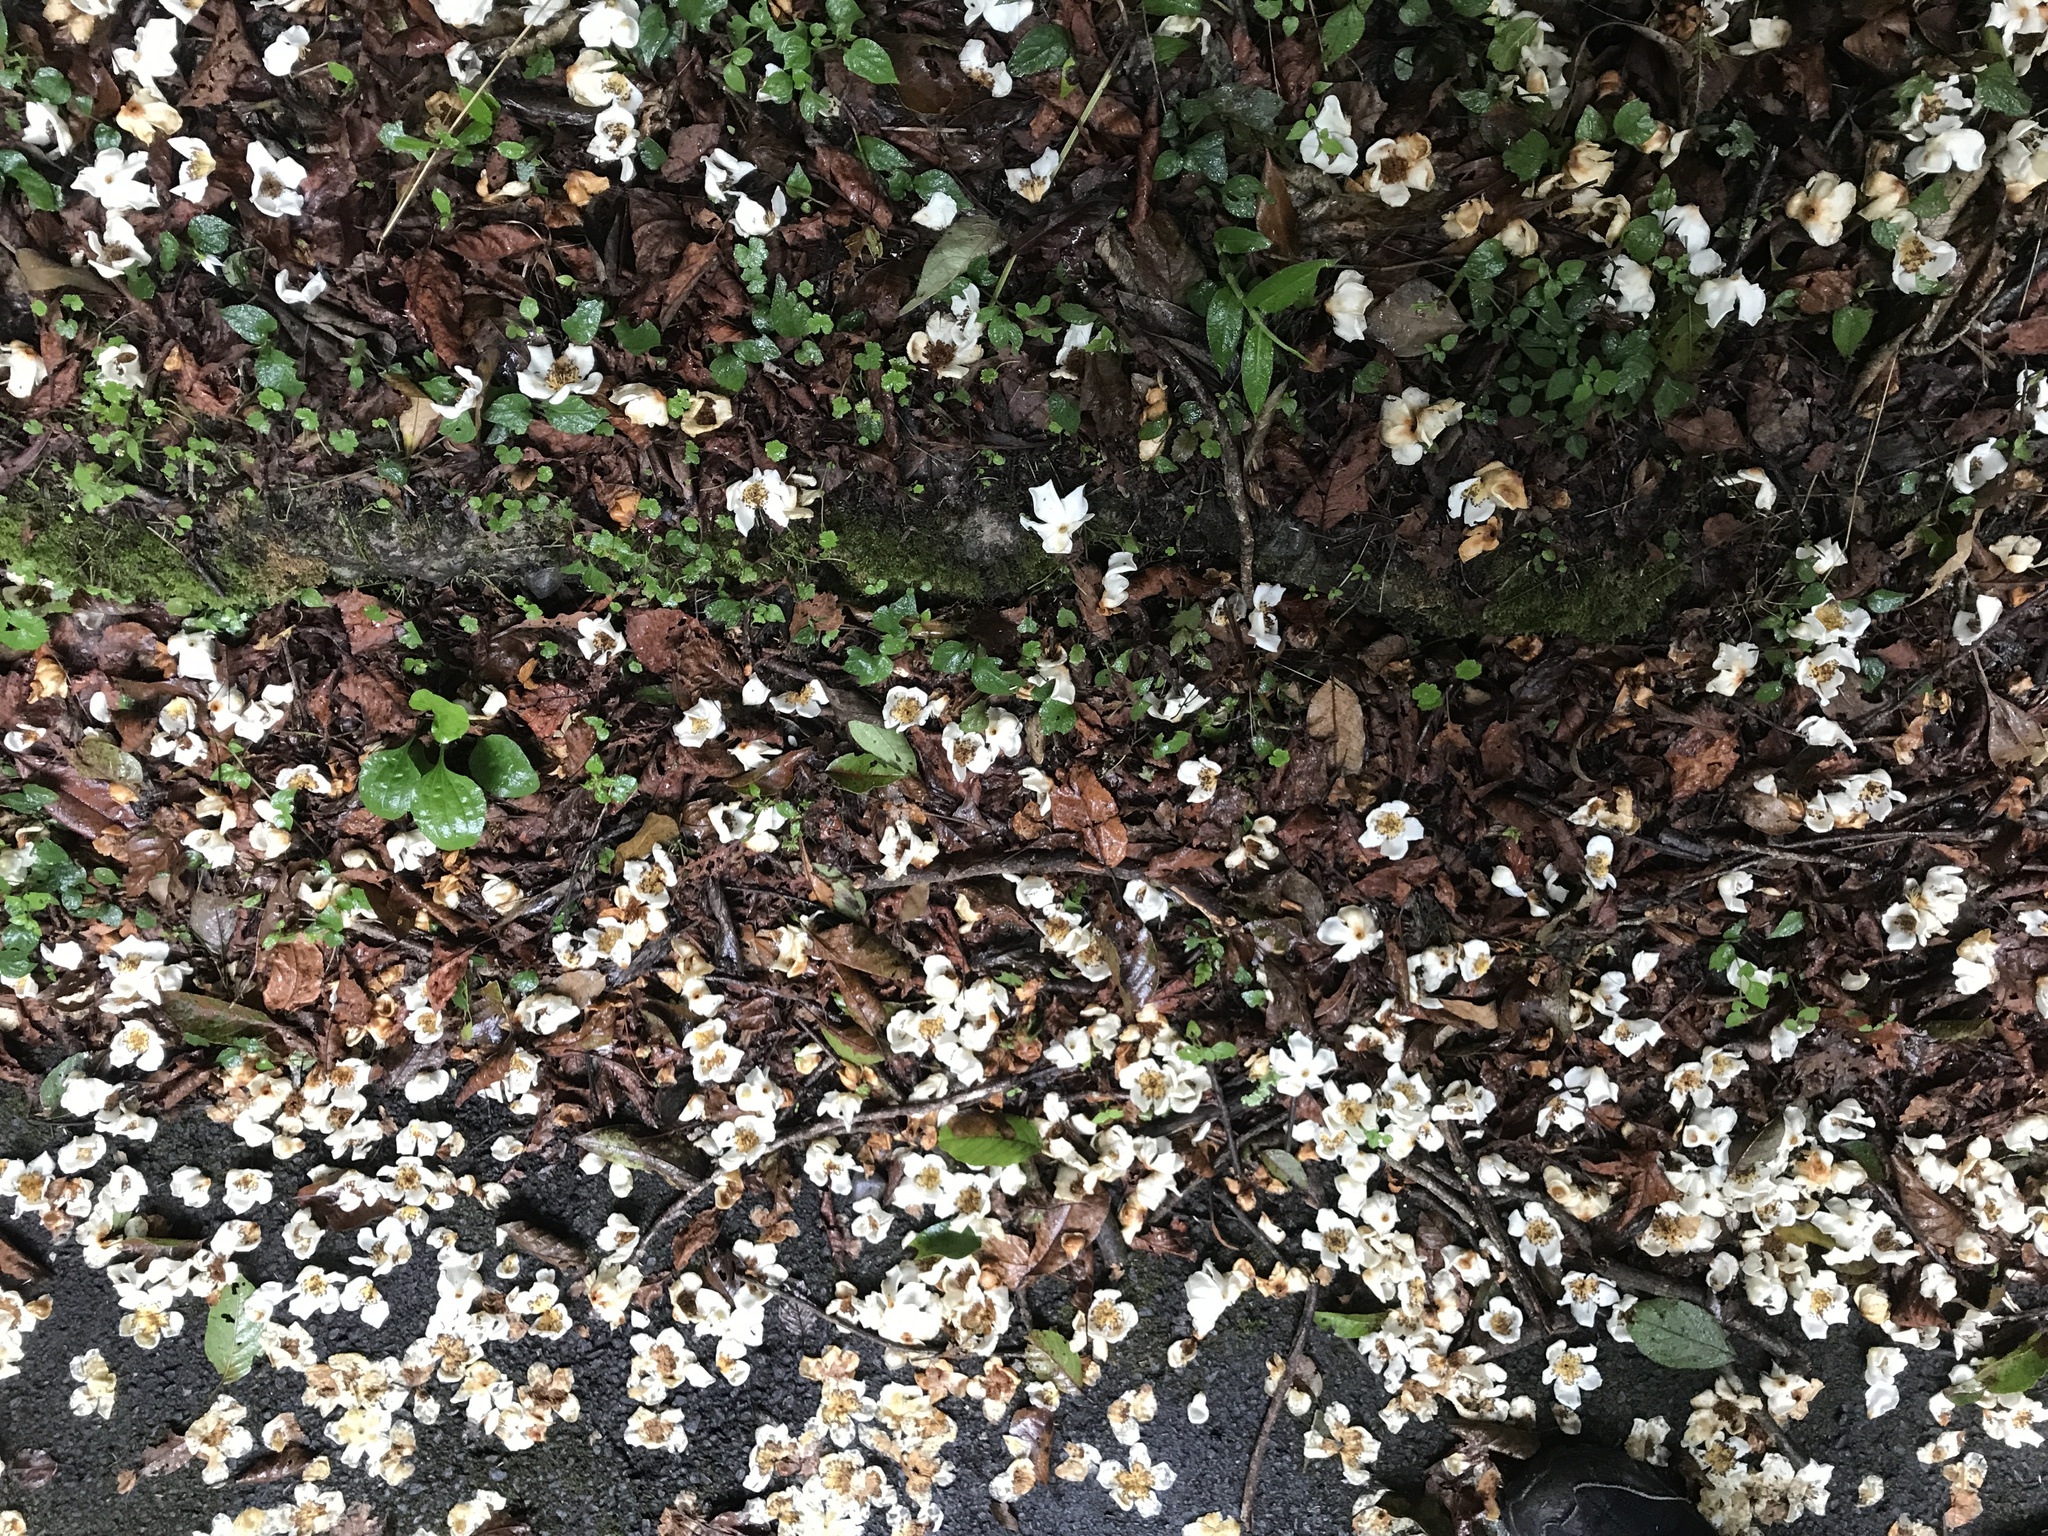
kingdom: Plantae
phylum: Tracheophyta
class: Magnoliopsida
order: Ericales
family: Theaceae
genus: Schima
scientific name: Schima superba
